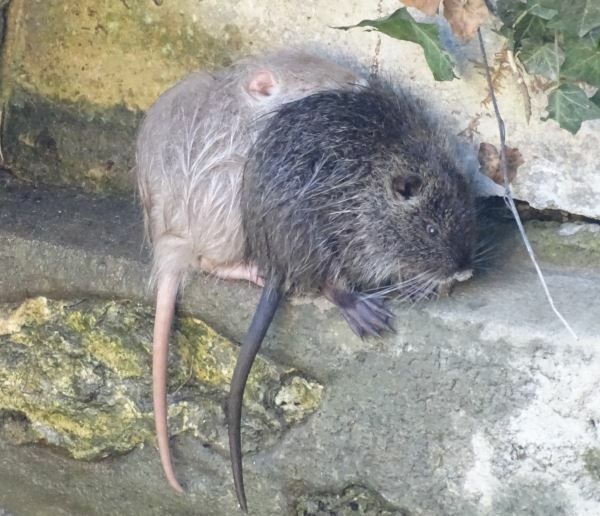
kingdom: Animalia
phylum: Chordata
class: Mammalia
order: Rodentia
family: Myocastoridae
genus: Myocastor
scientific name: Myocastor coypus
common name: Coypu
